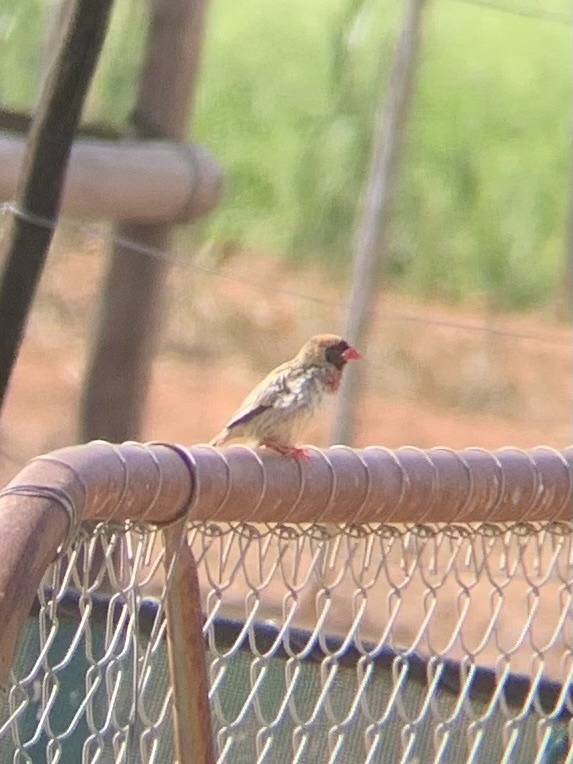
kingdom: Animalia
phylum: Chordata
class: Aves
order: Passeriformes
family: Ploceidae
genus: Quelea
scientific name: Quelea quelea
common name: Red-billed quelea
